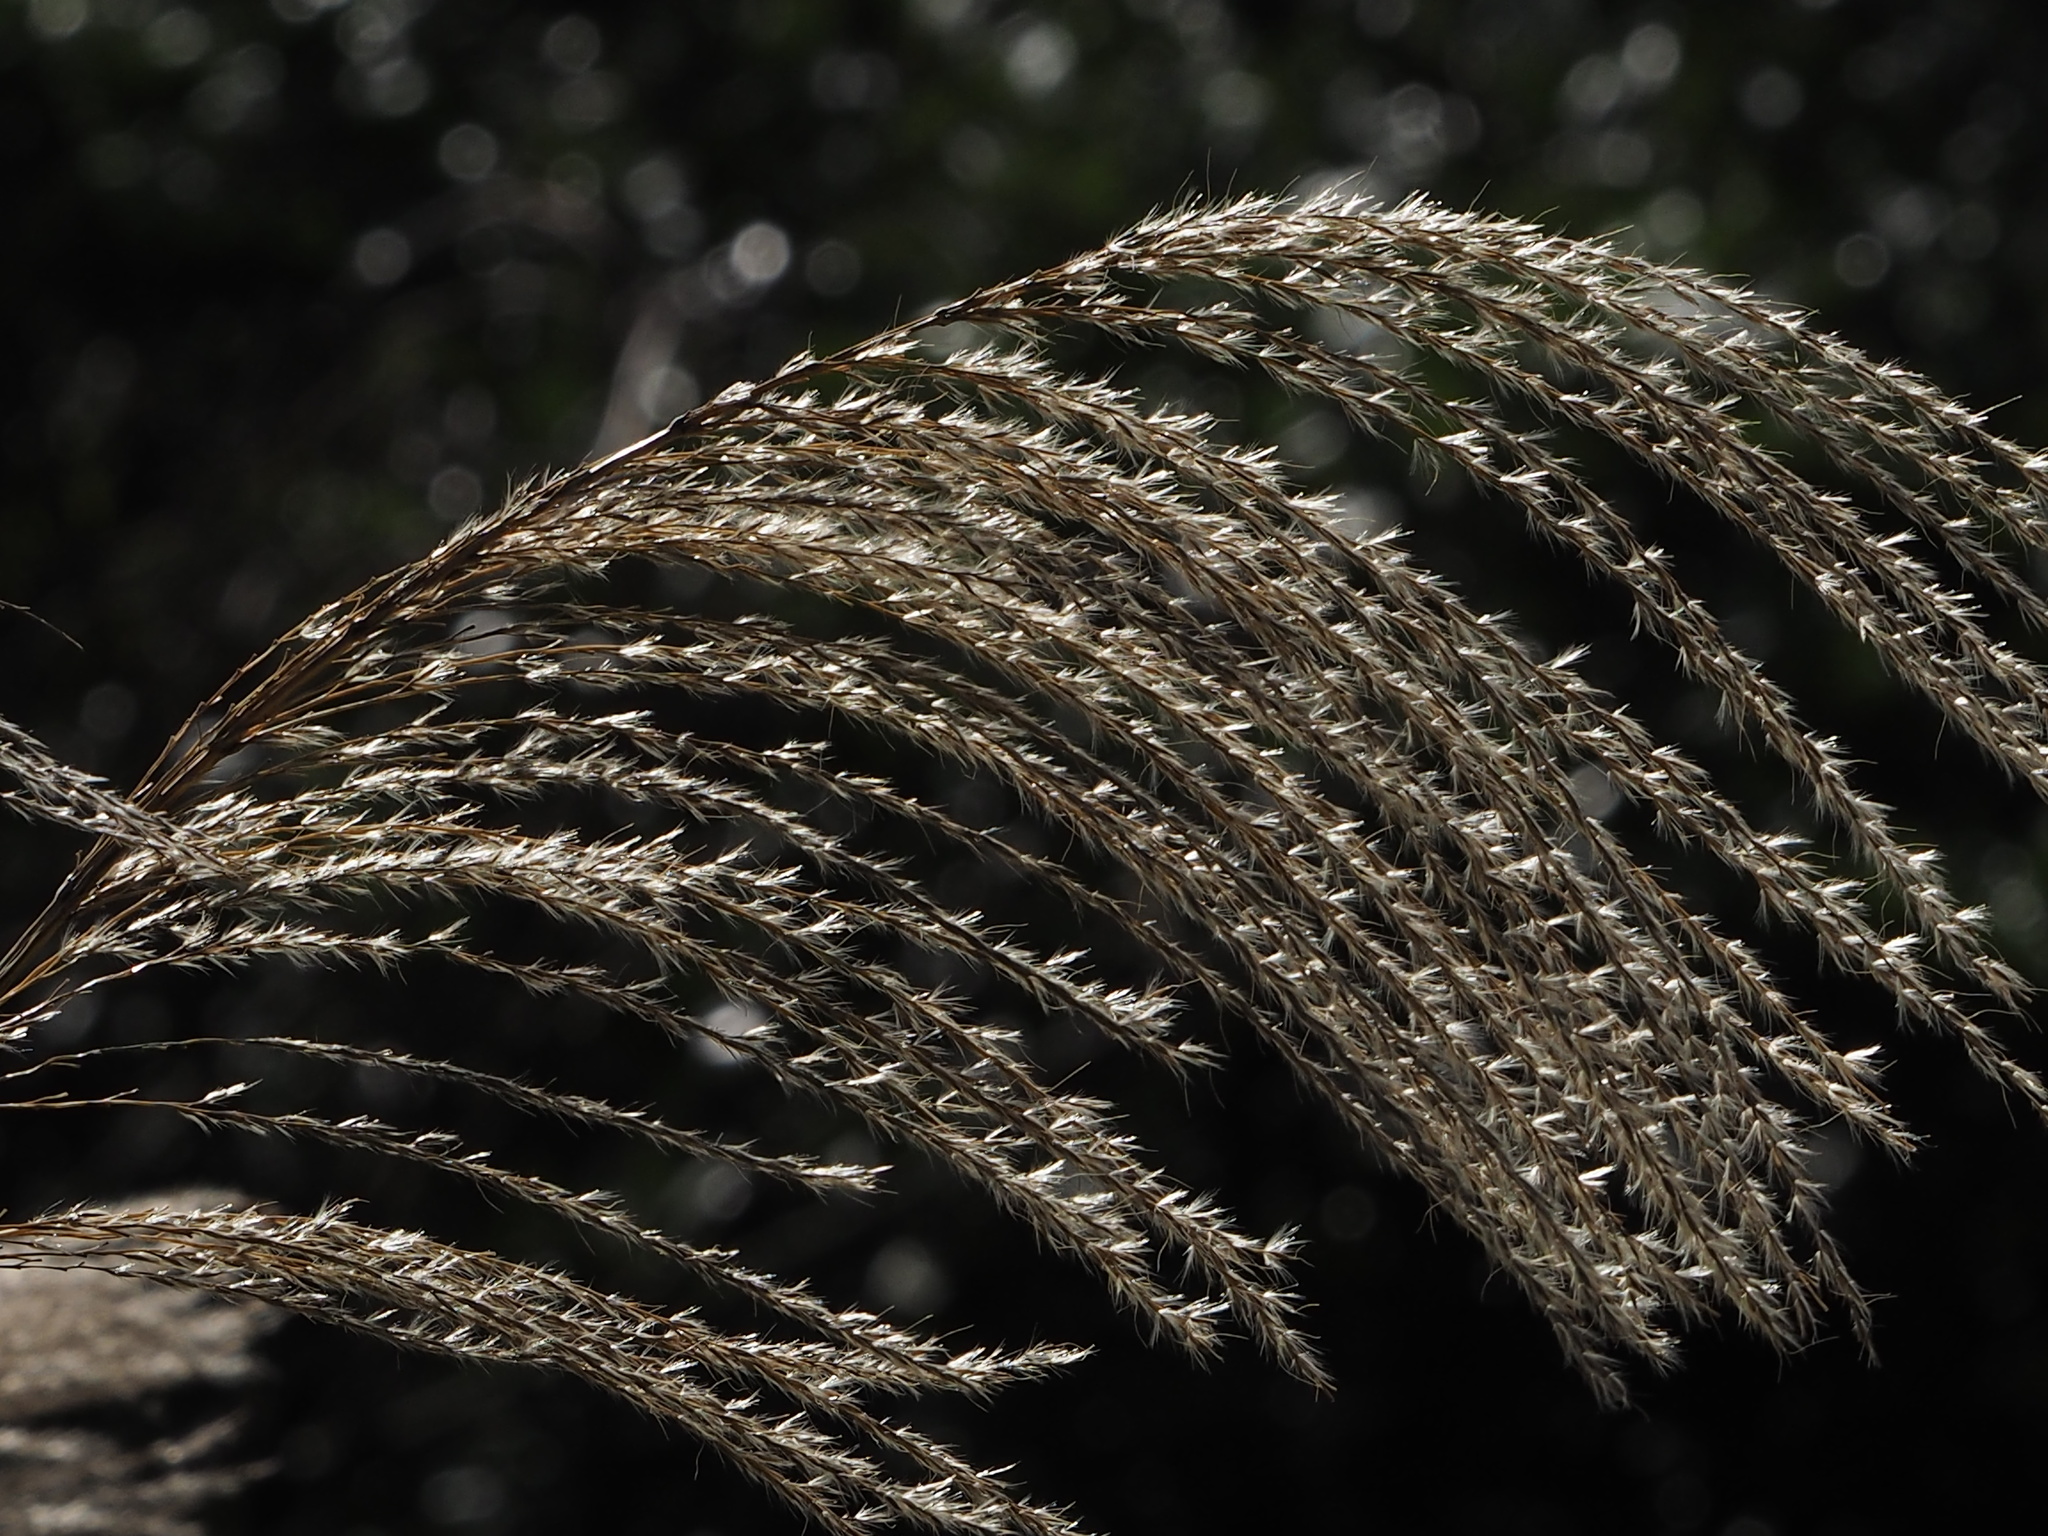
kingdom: Plantae
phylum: Tracheophyta
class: Liliopsida
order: Poales
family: Poaceae
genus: Miscanthus
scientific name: Miscanthus sinensis
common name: Chinese silvergrass
